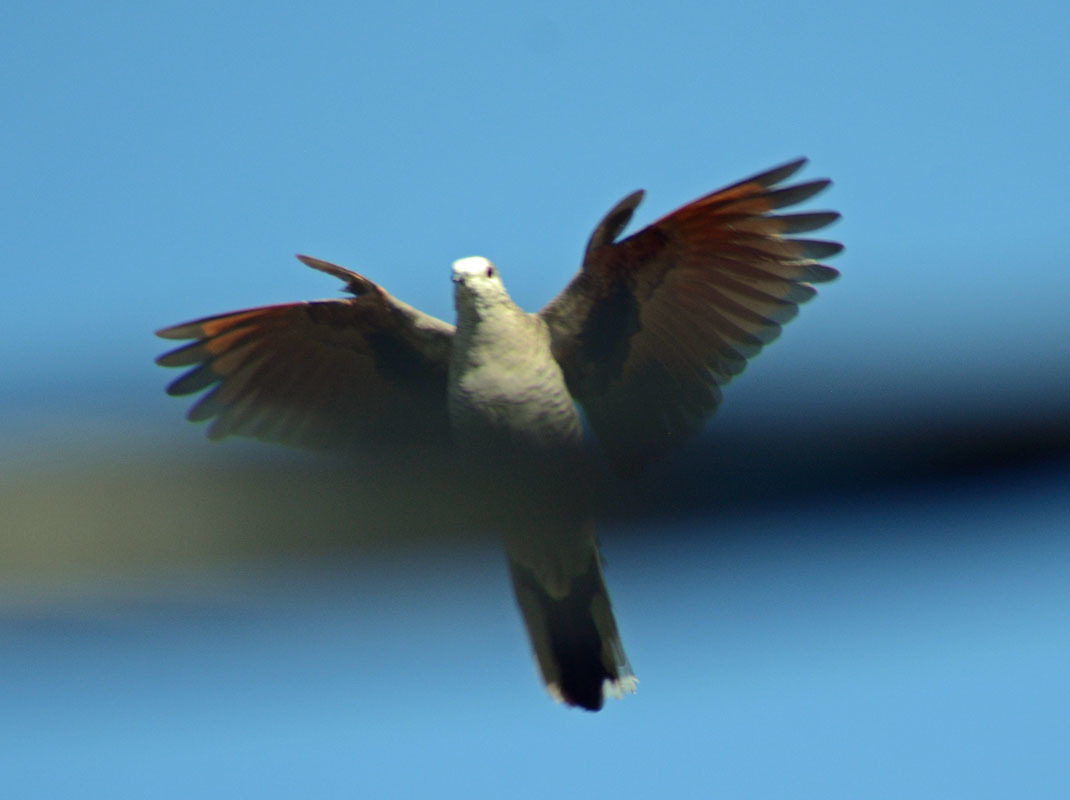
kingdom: Animalia
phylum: Chordata
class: Aves
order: Columbiformes
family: Columbidae
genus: Columbina
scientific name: Columbina inca
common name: Inca dove
